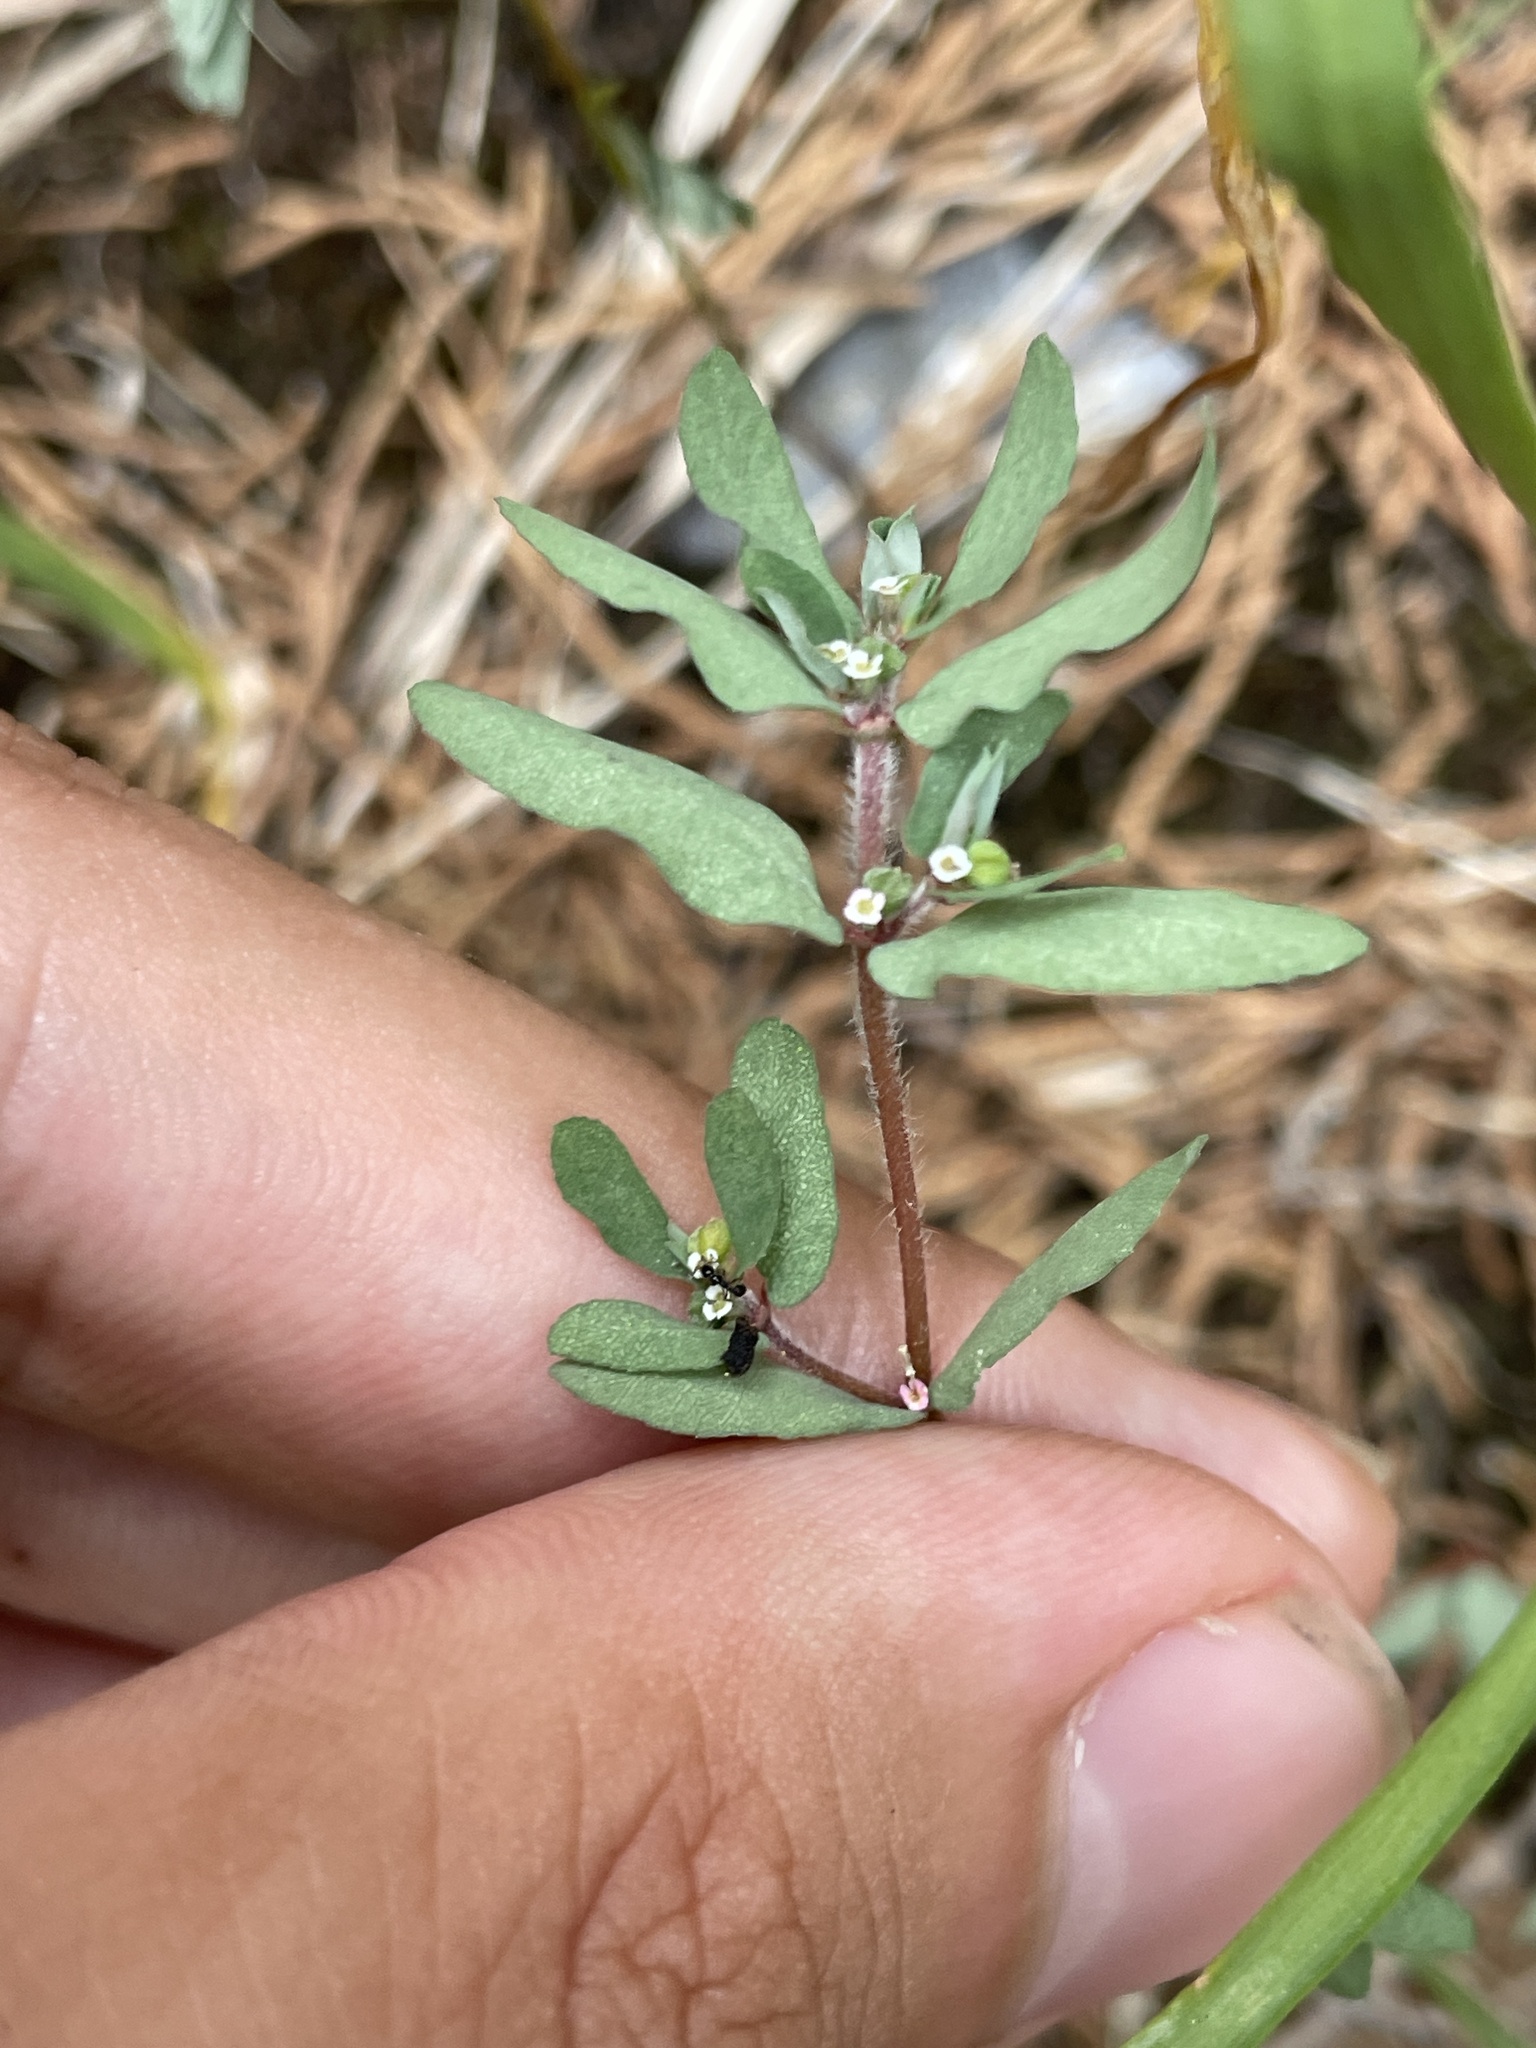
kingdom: Plantae
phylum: Tracheophyta
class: Magnoliopsida
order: Malpighiales
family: Euphorbiaceae
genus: Euphorbia
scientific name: Euphorbia maculata
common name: Spotted spurge
